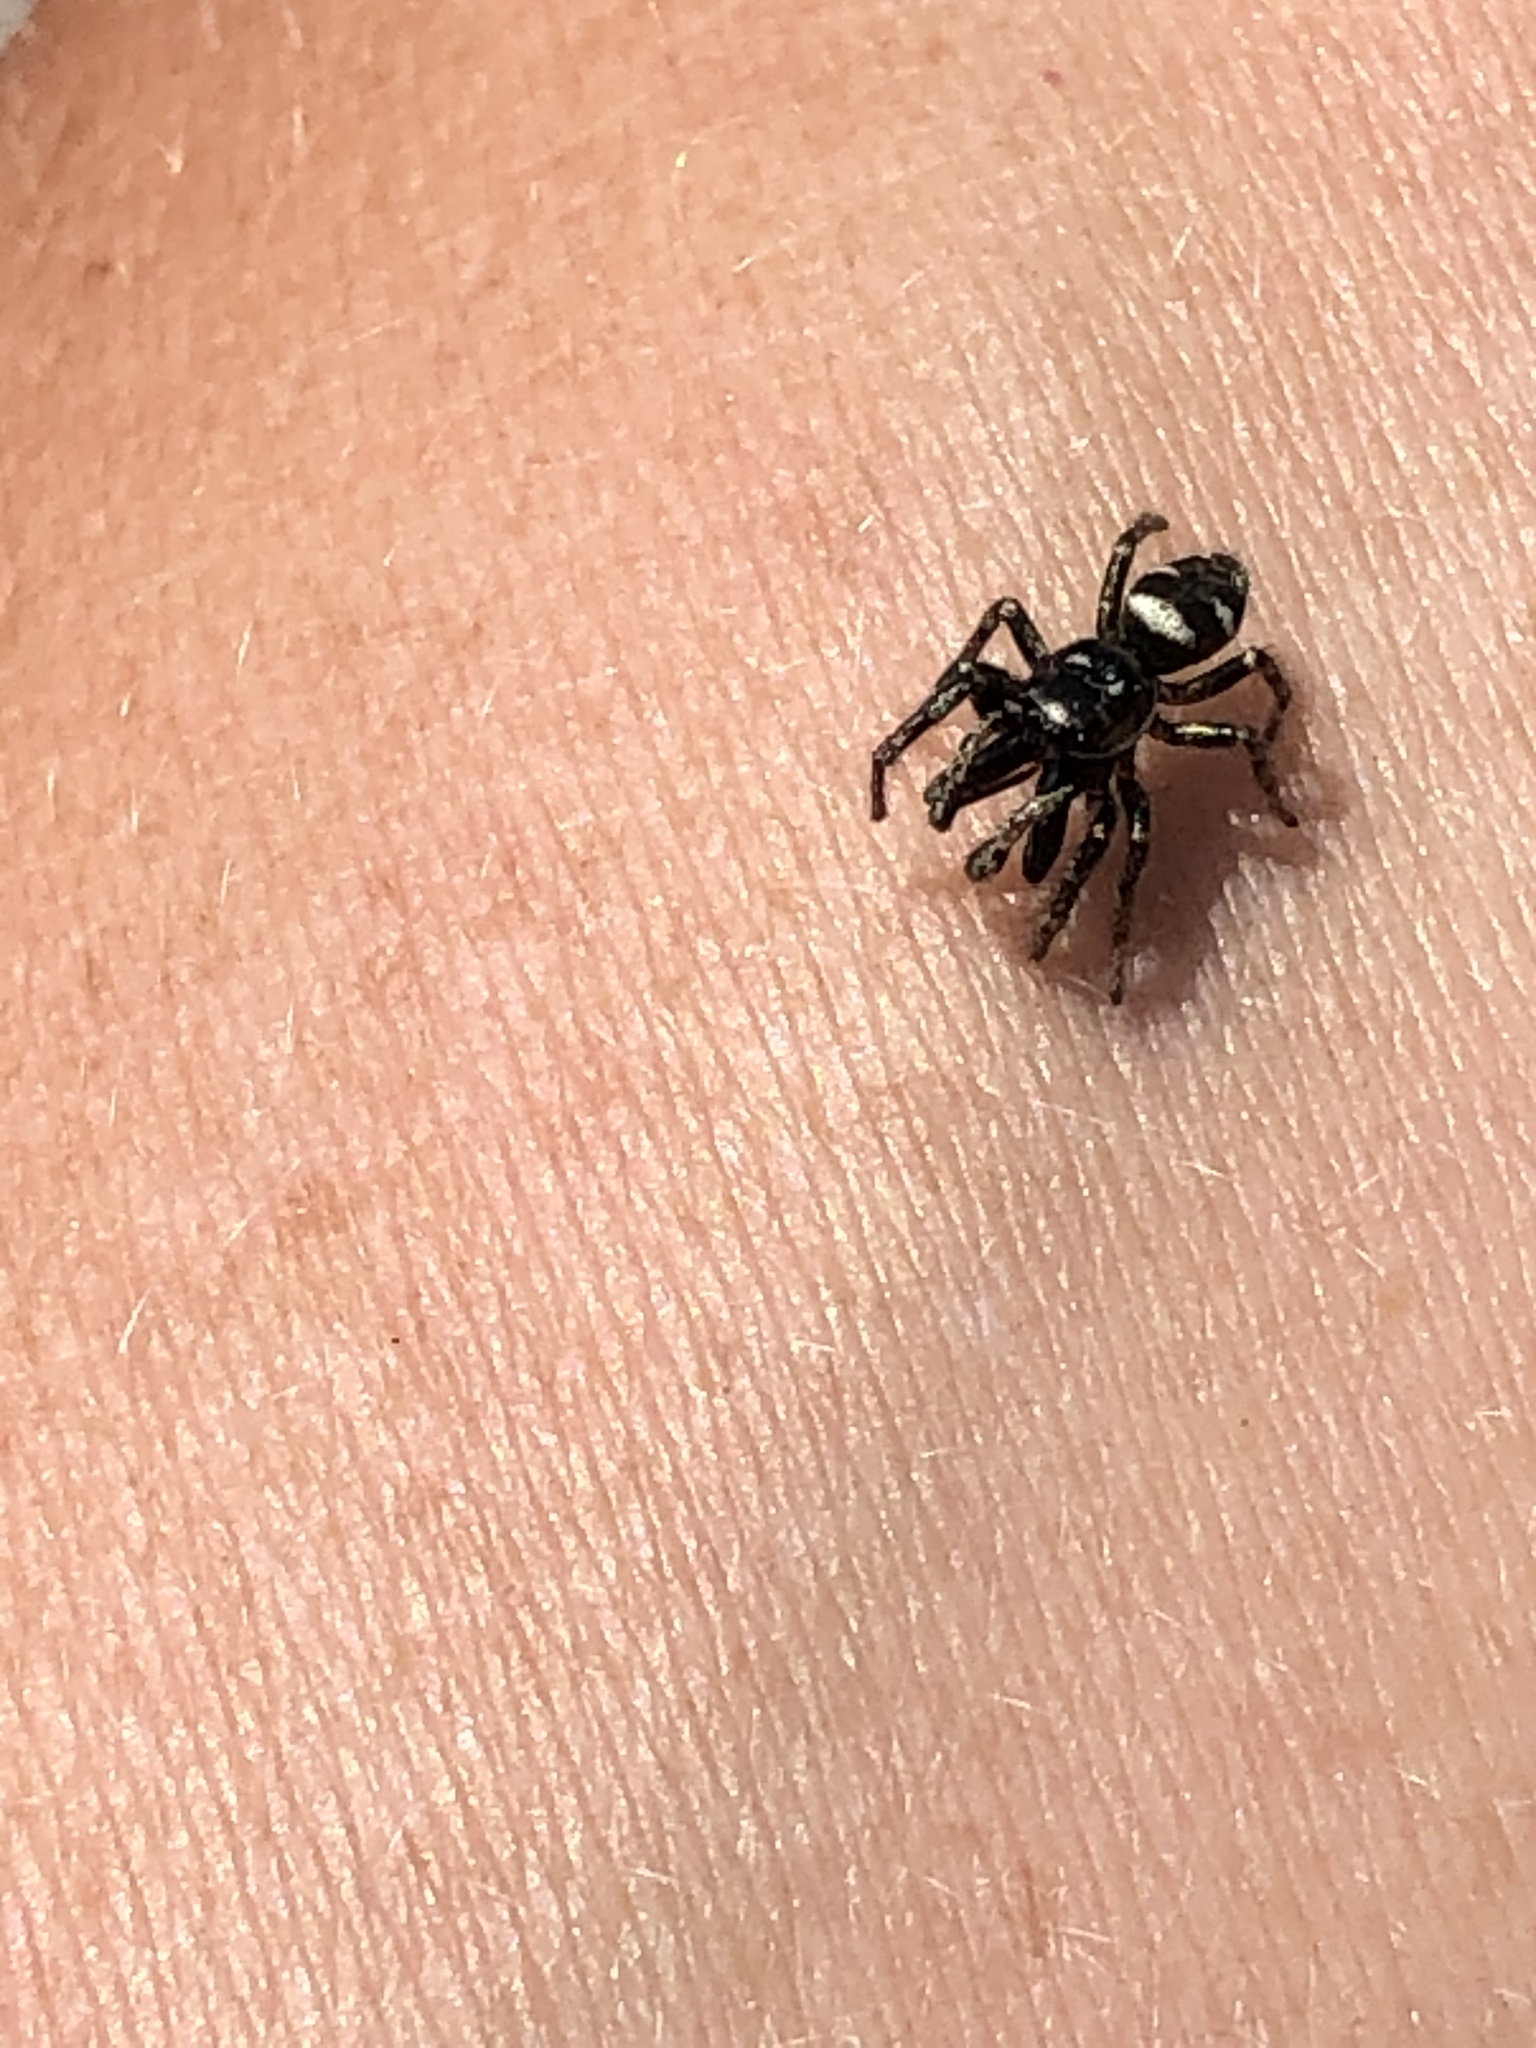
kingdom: Animalia
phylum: Arthropoda
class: Arachnida
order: Araneae
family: Salticidae
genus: Salticus
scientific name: Salticus scenicus
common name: Zebra jumper
